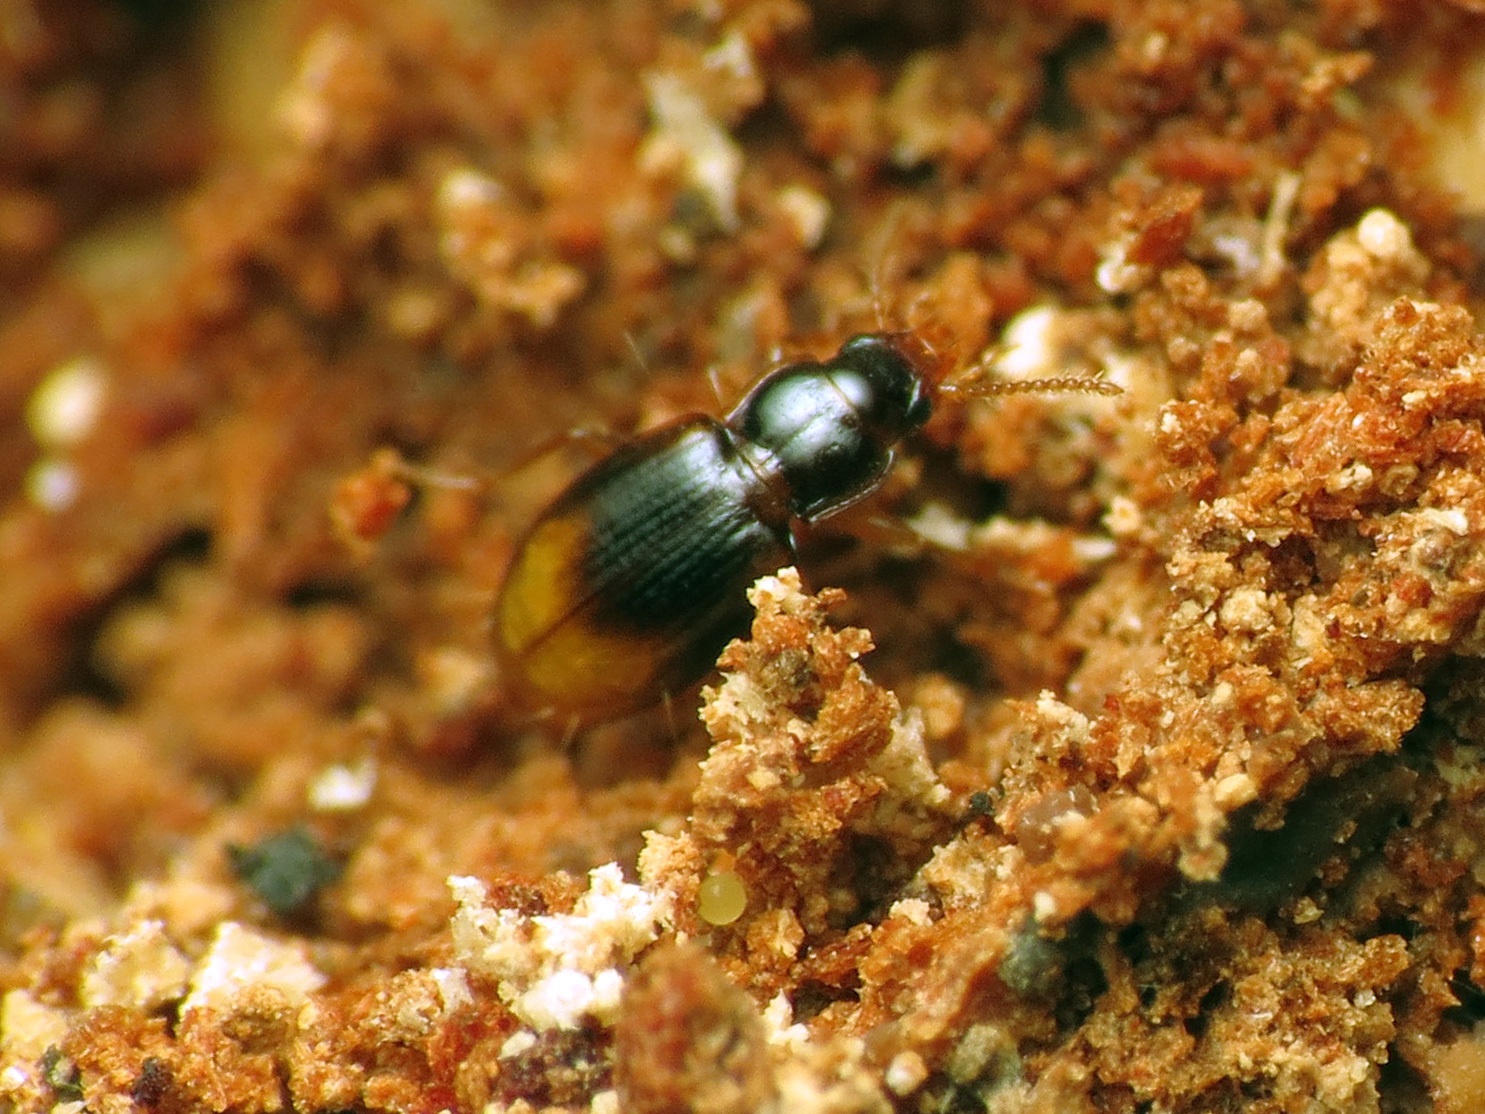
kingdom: Animalia
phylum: Arthropoda
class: Insecta
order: Coleoptera
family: Carabidae
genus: Mioptachys
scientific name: Mioptachys flavicauda
